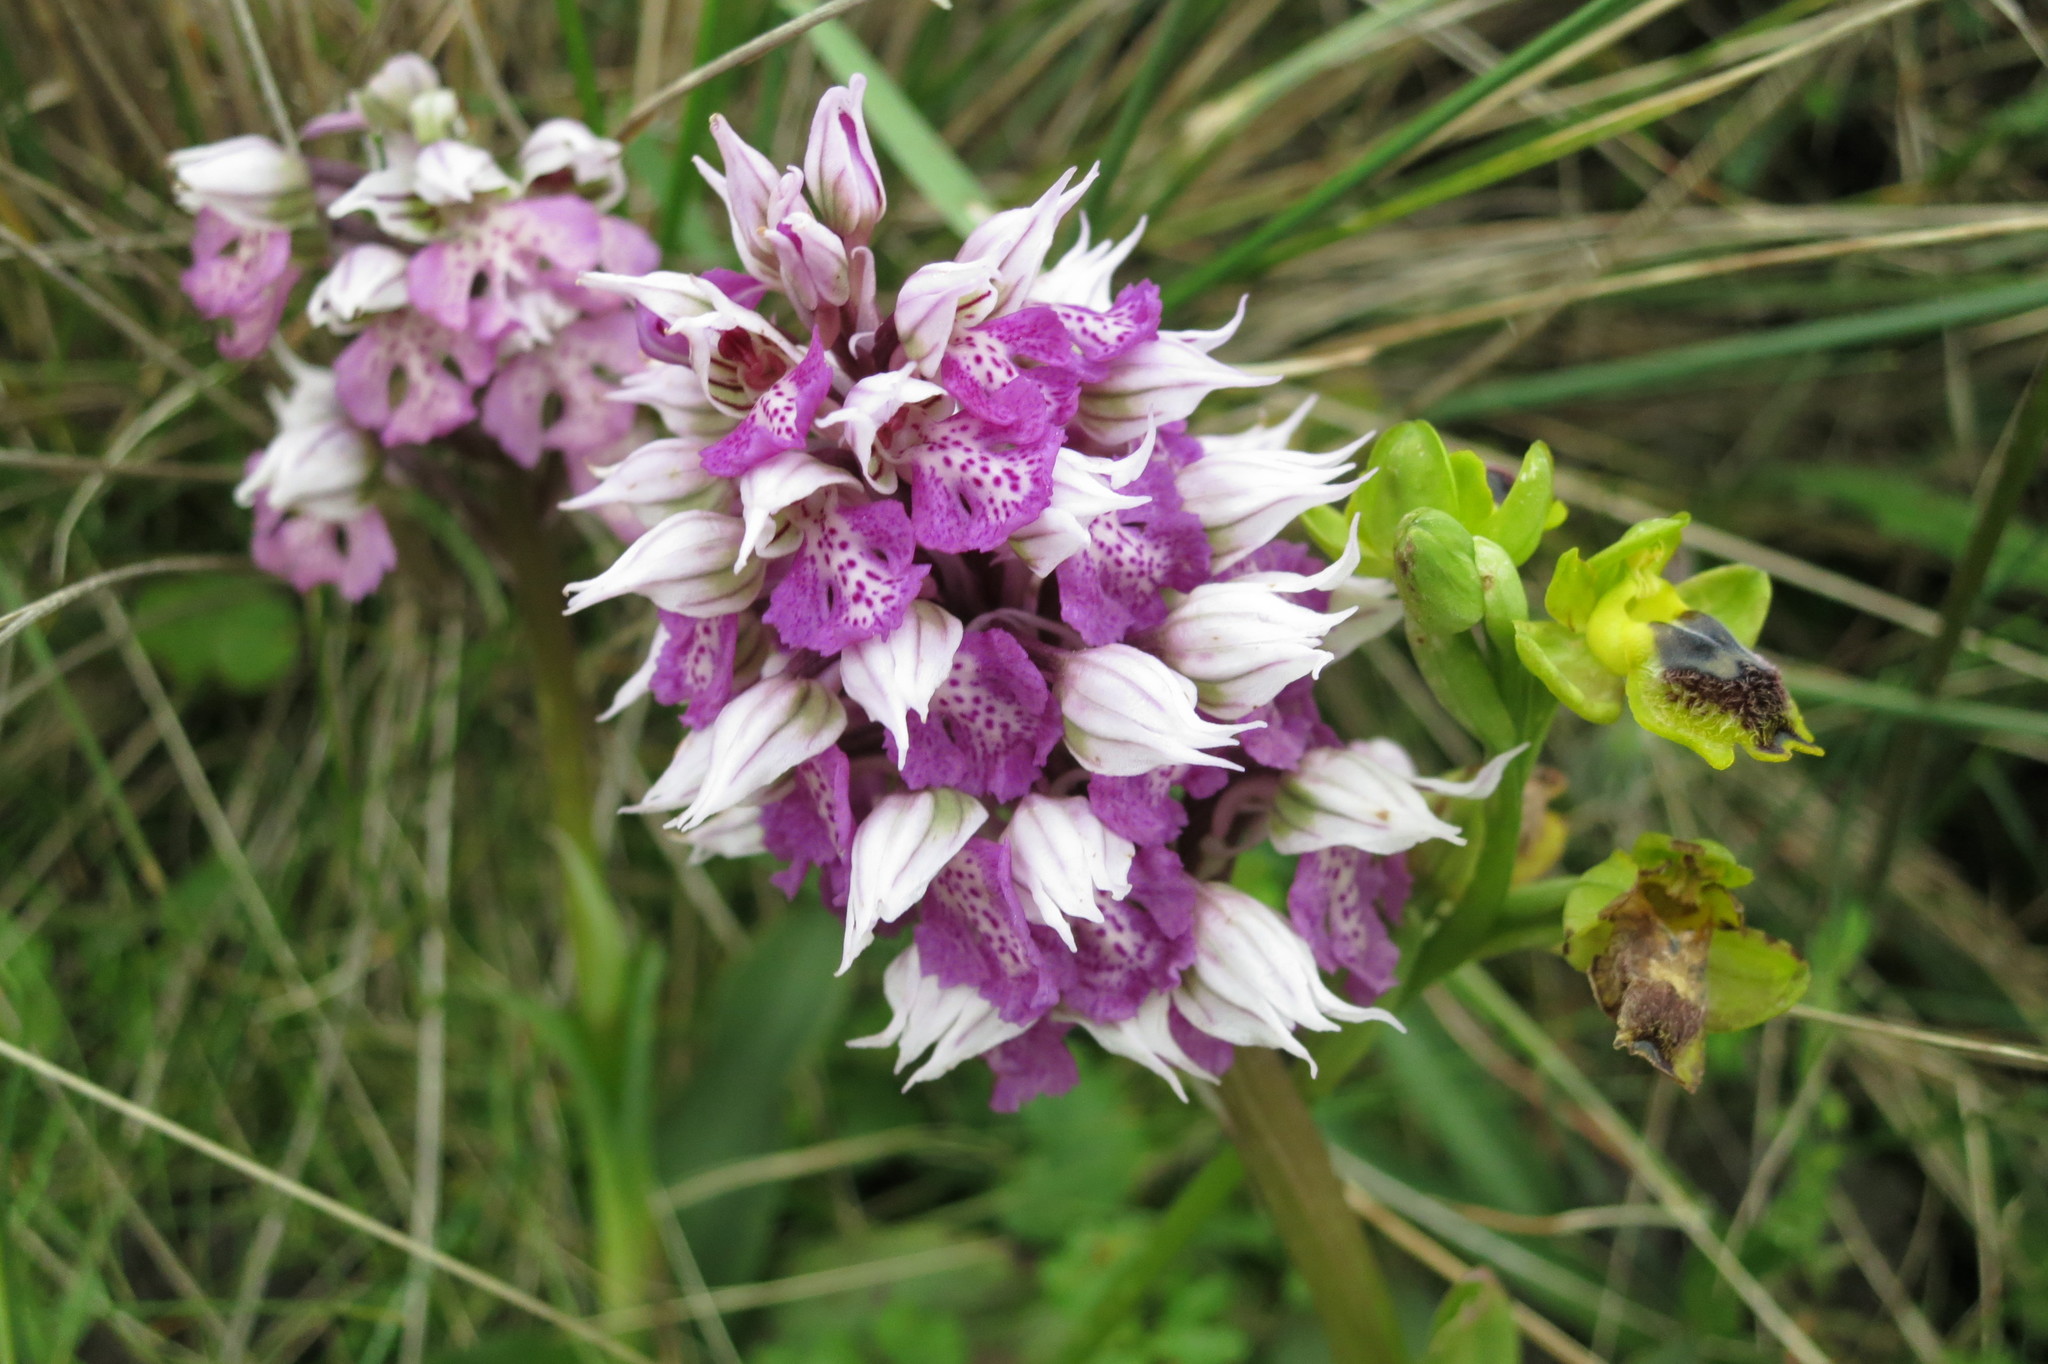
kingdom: Plantae
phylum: Tracheophyta
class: Liliopsida
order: Asparagales
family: Orchidaceae
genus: Neotinea
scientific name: Neotinea lactea
